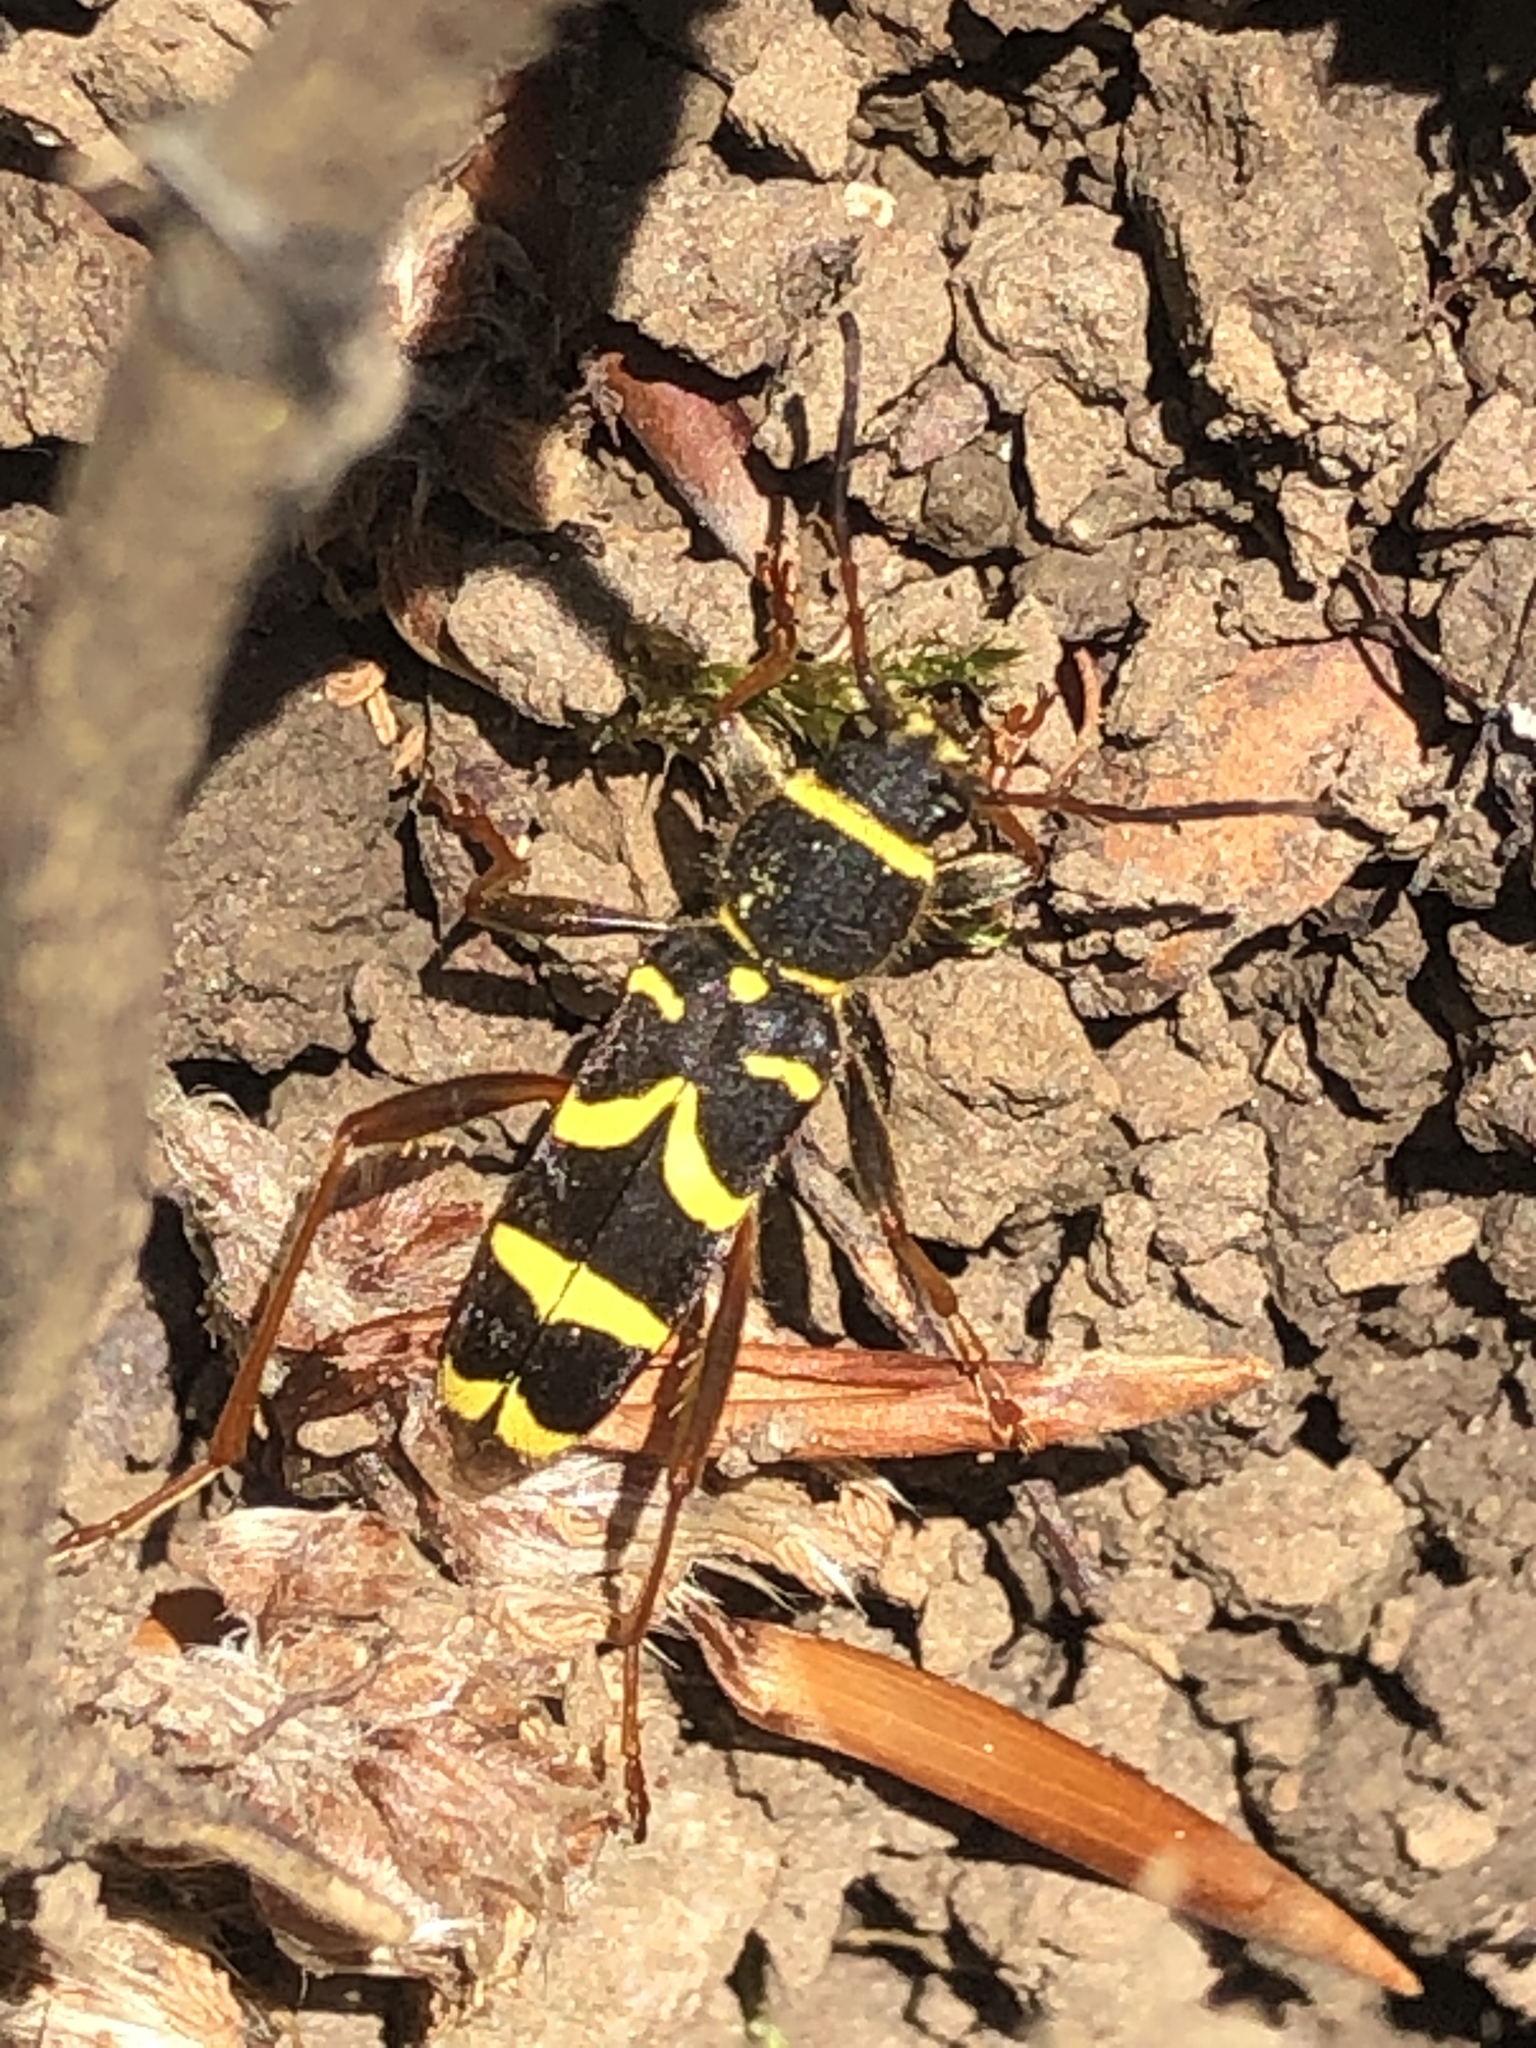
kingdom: Animalia
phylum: Arthropoda
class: Insecta
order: Coleoptera
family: Cerambycidae
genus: Clytus
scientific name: Clytus arietis
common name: Wasp beetle
